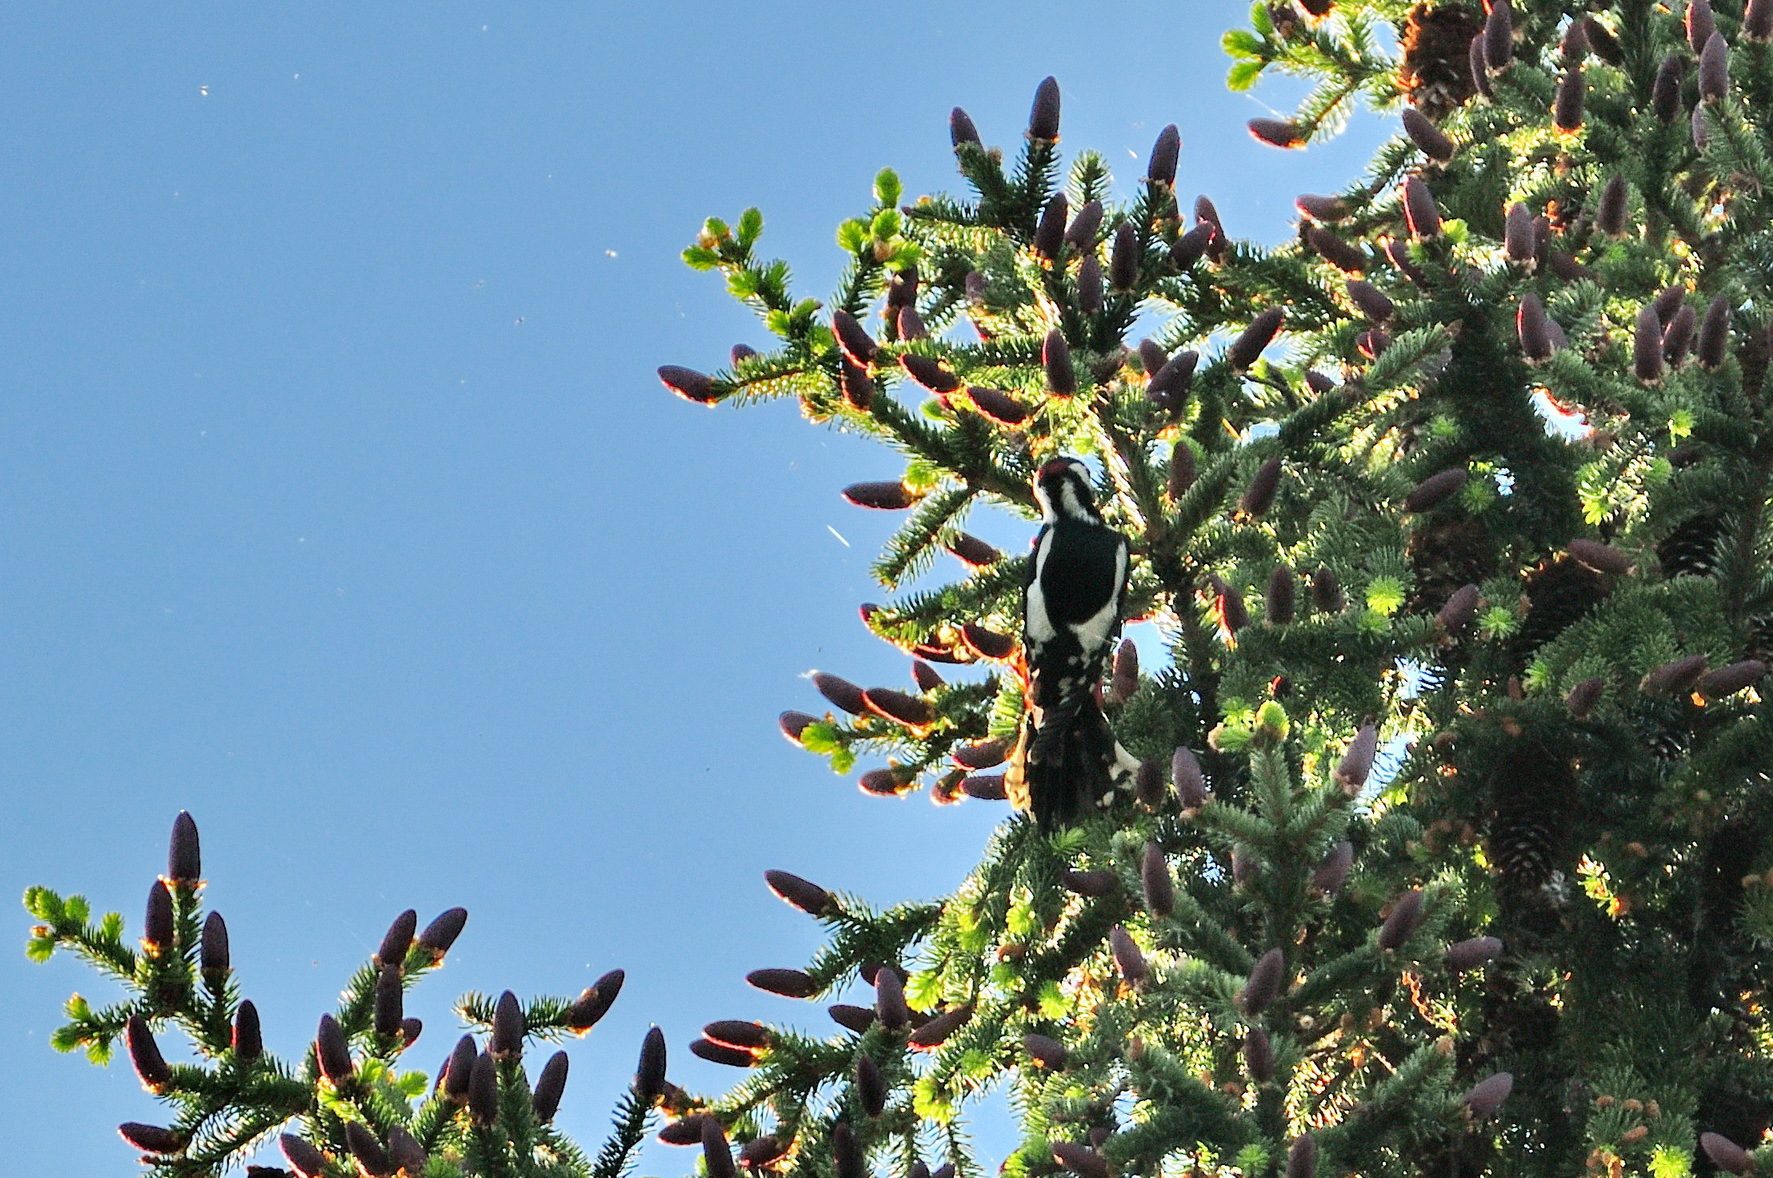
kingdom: Animalia
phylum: Chordata
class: Aves
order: Piciformes
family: Picidae
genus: Dendrocopos
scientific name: Dendrocopos major
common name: Great spotted woodpecker
